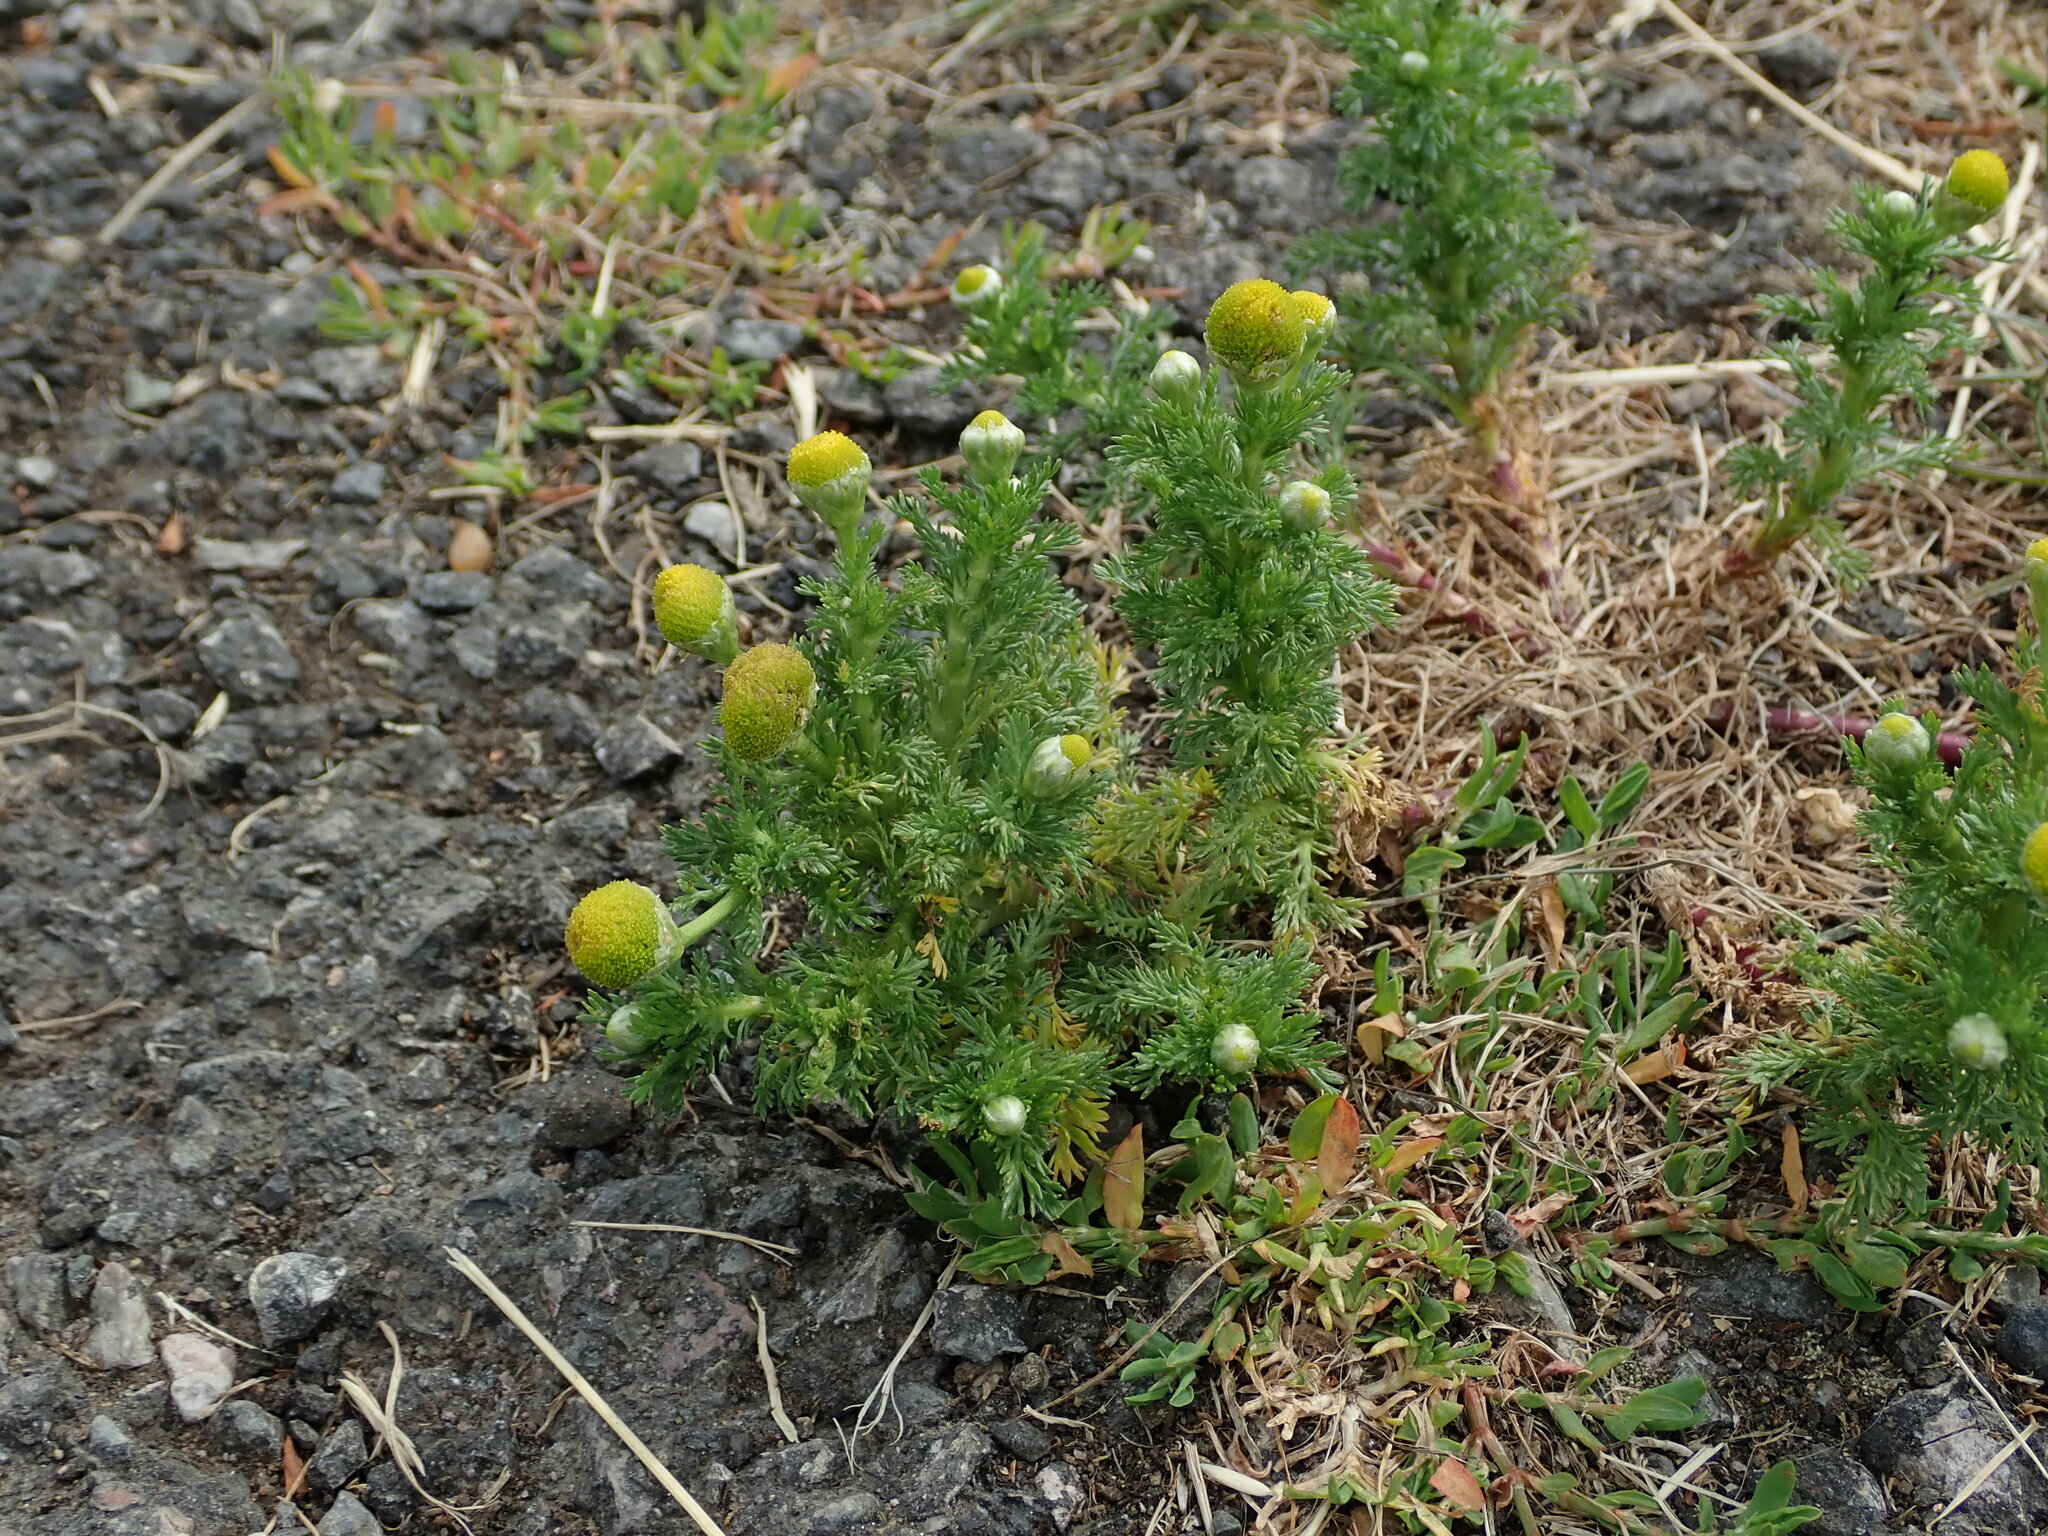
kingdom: Plantae
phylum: Tracheophyta
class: Magnoliopsida
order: Asterales
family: Asteraceae
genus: Matricaria
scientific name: Matricaria discoidea
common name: Disc mayweed
